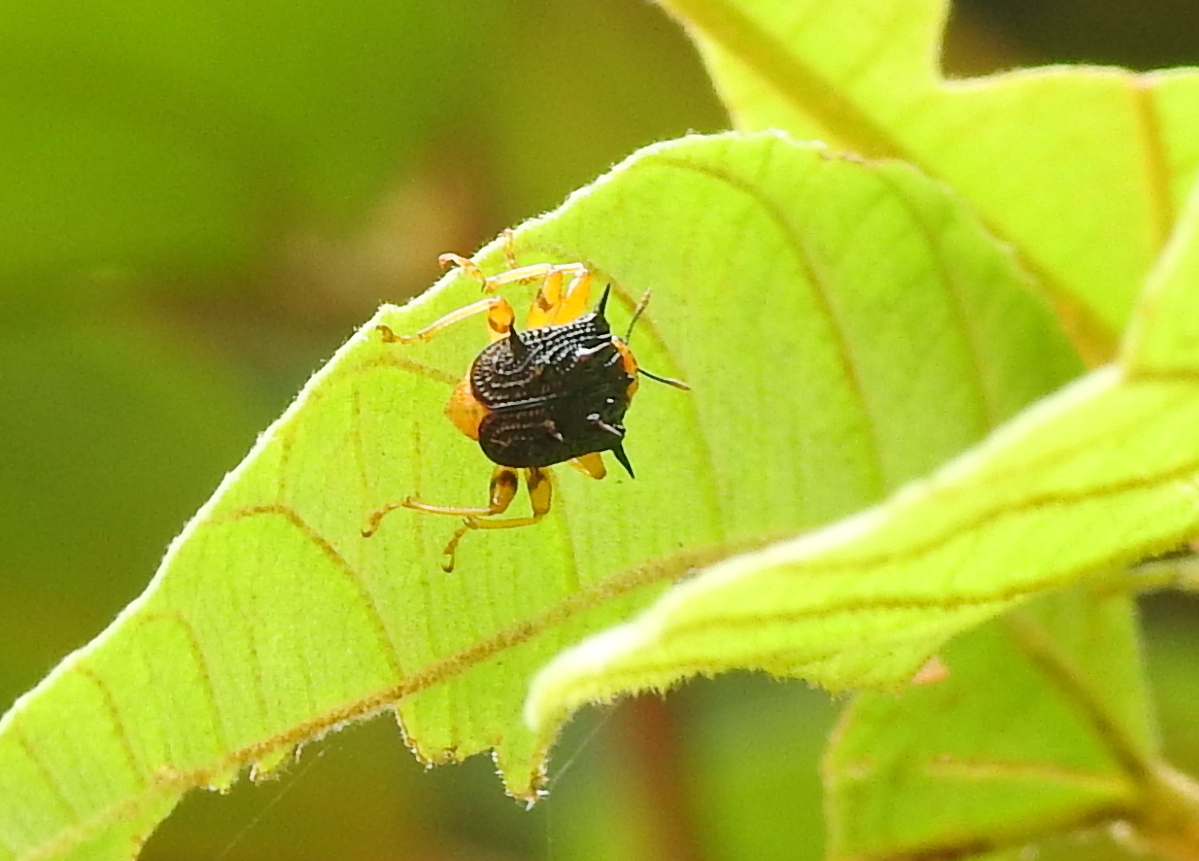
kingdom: Animalia
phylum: Arthropoda
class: Insecta
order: Coleoptera
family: Attelabidae
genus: Hoplapoderus
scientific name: Hoplapoderus hystrix
